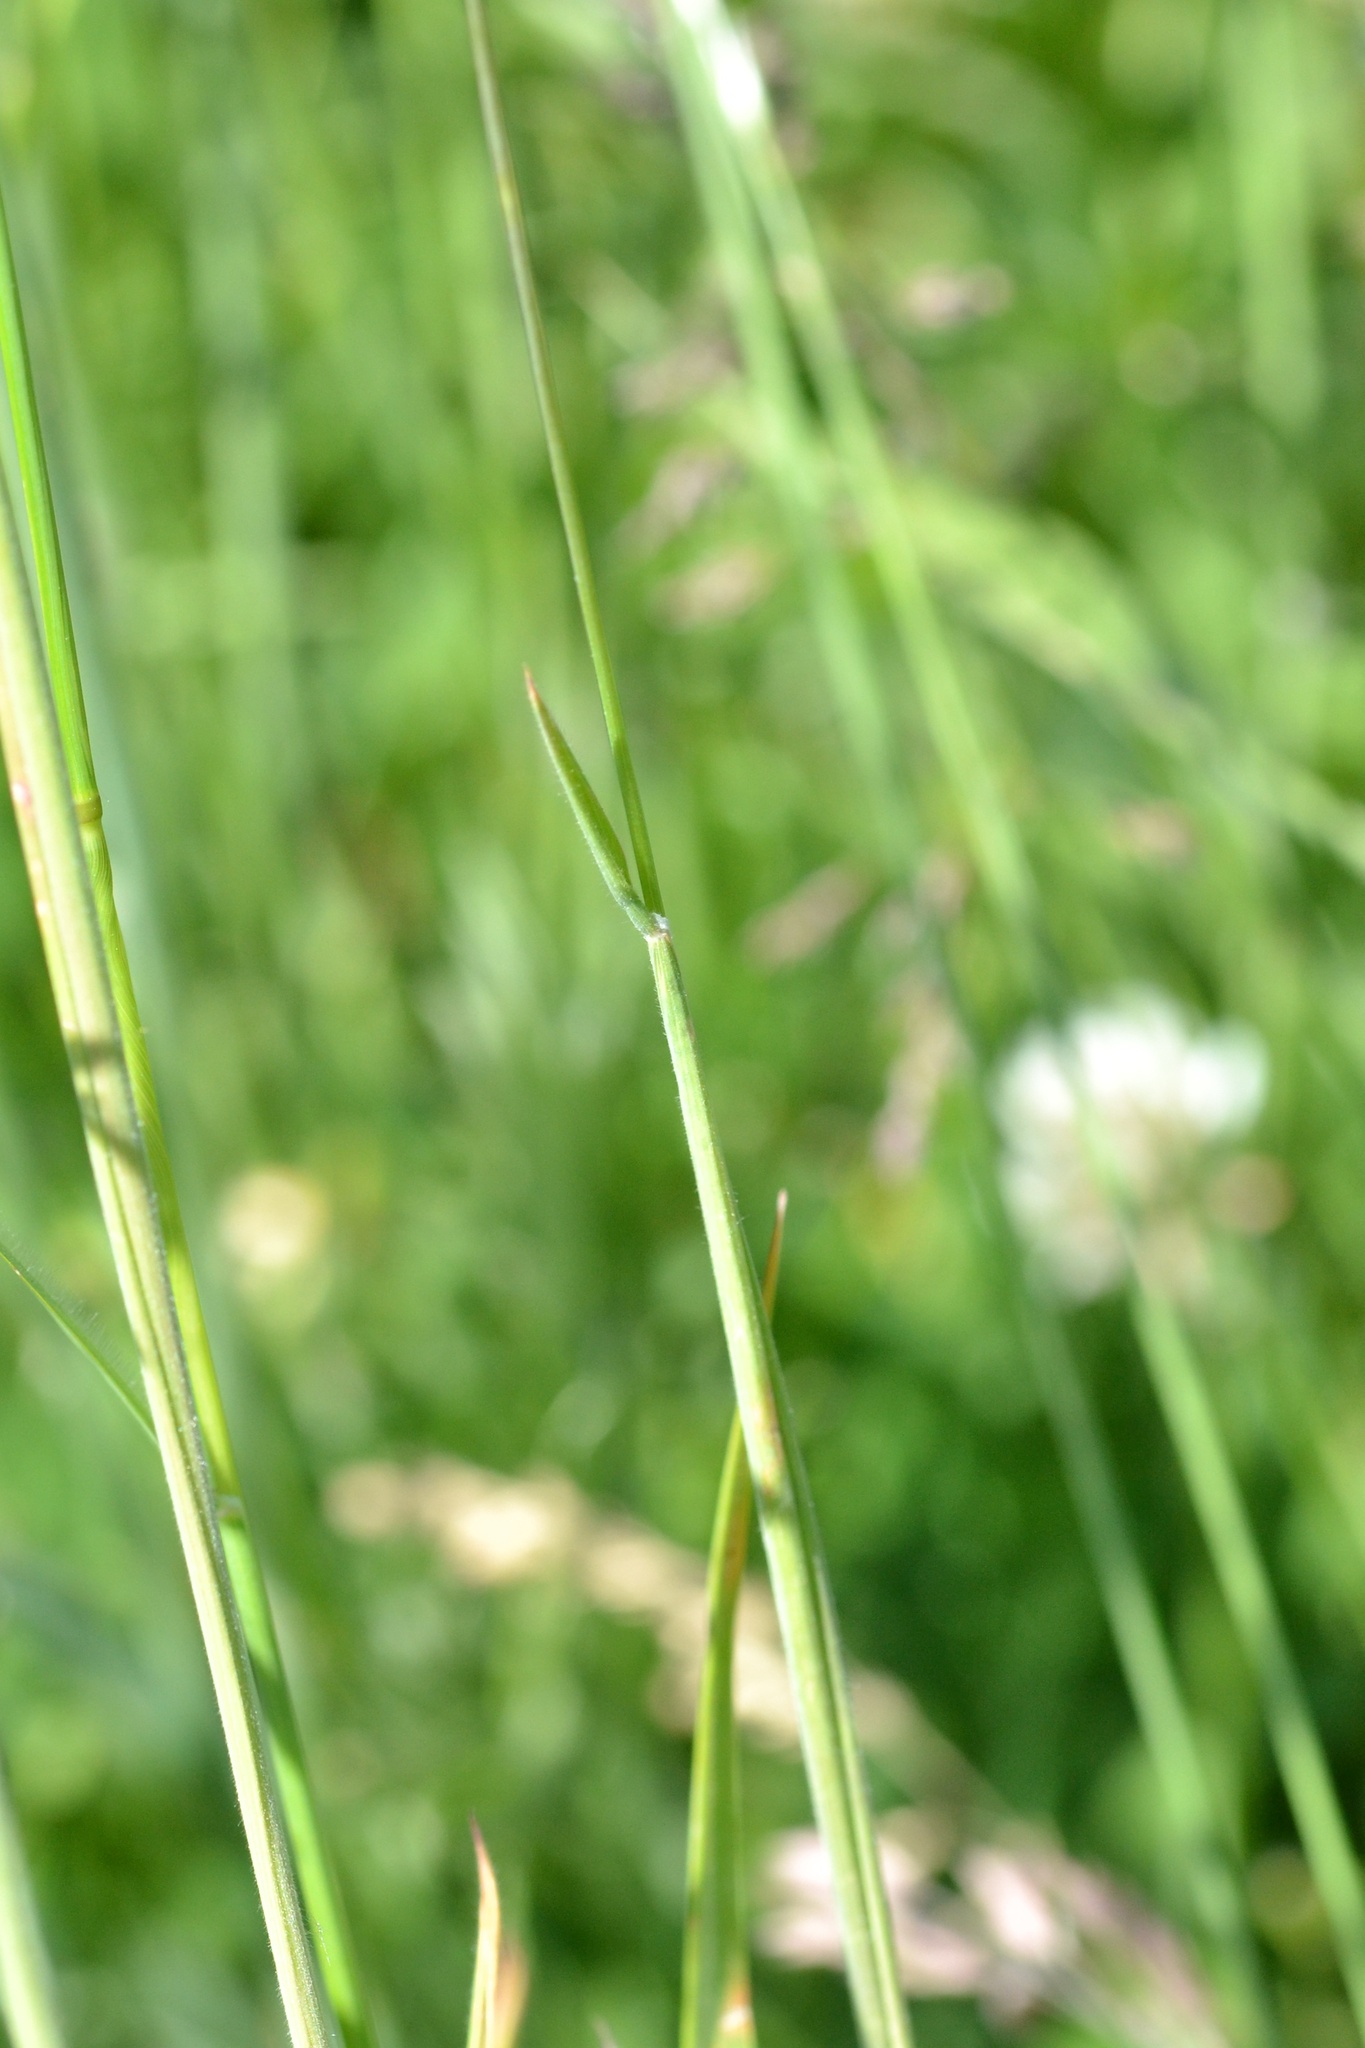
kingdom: Plantae
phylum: Tracheophyta
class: Liliopsida
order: Poales
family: Poaceae
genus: Holcus
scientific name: Holcus lanatus
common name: Yorkshire-fog
